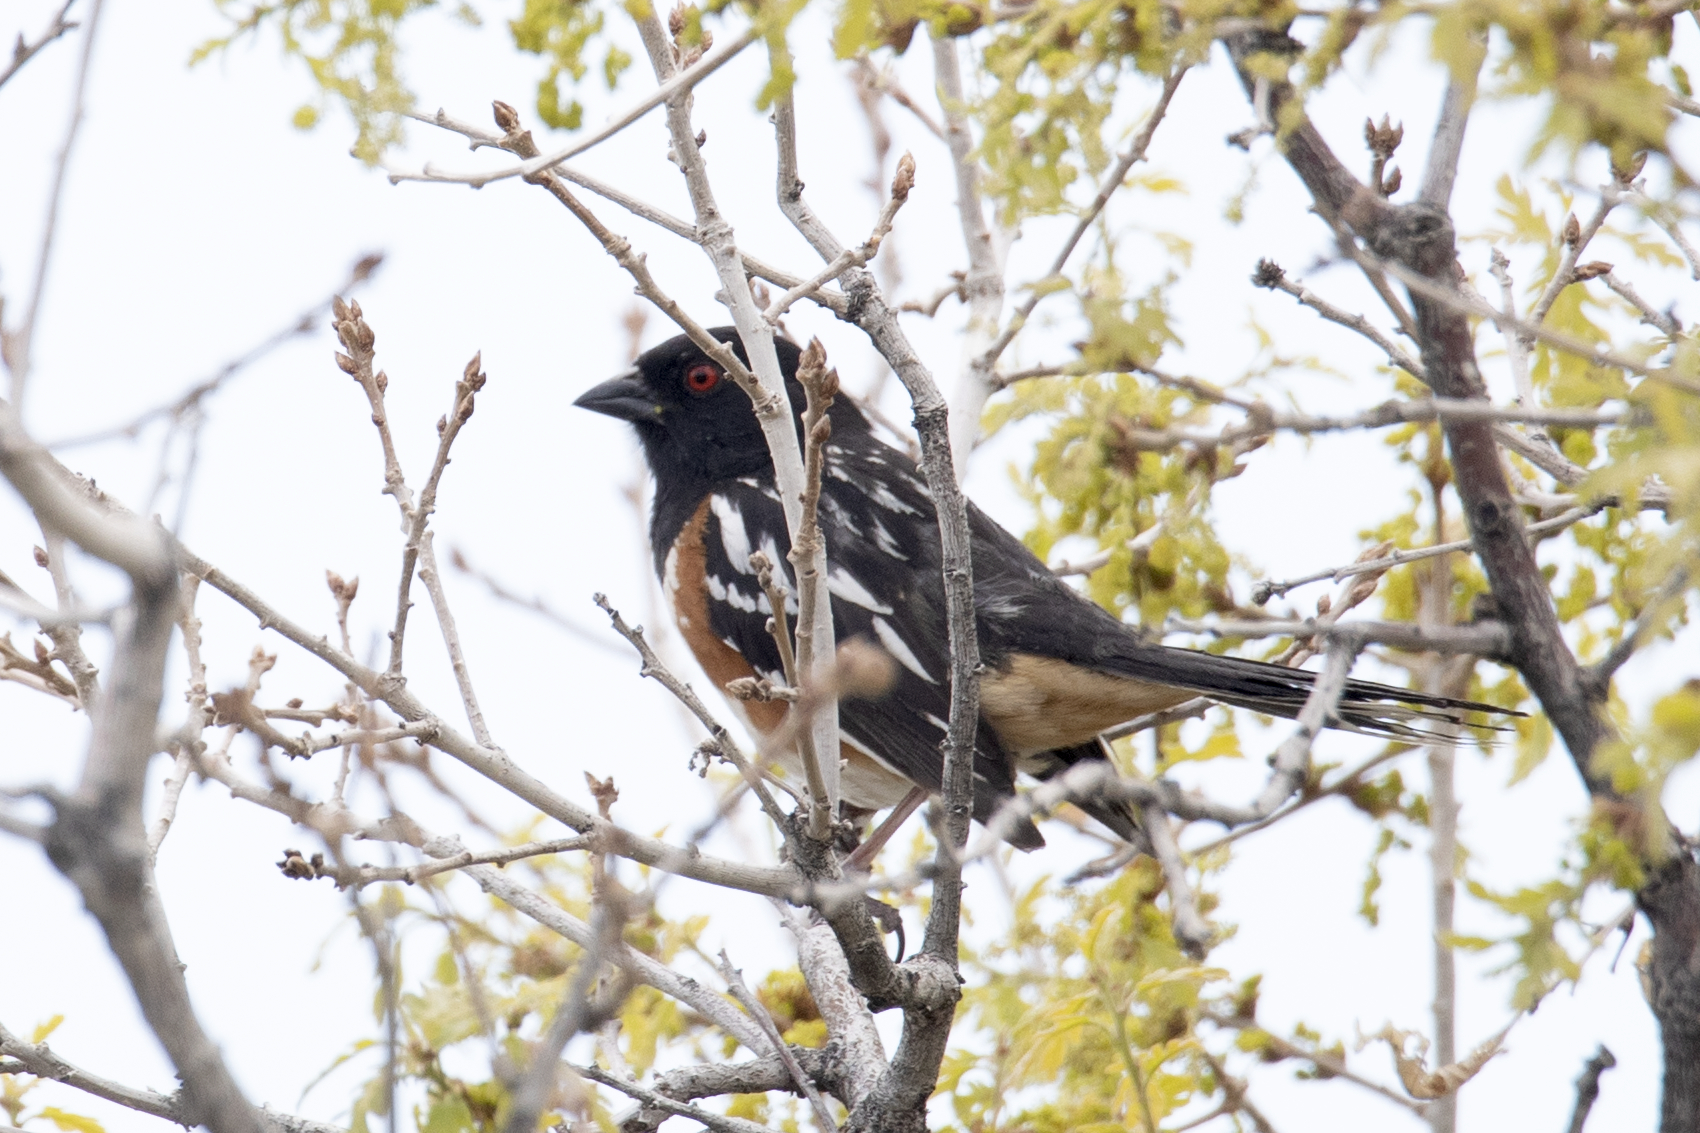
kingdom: Animalia
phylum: Chordata
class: Aves
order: Passeriformes
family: Passerellidae
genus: Pipilo
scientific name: Pipilo maculatus
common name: Spotted towhee
